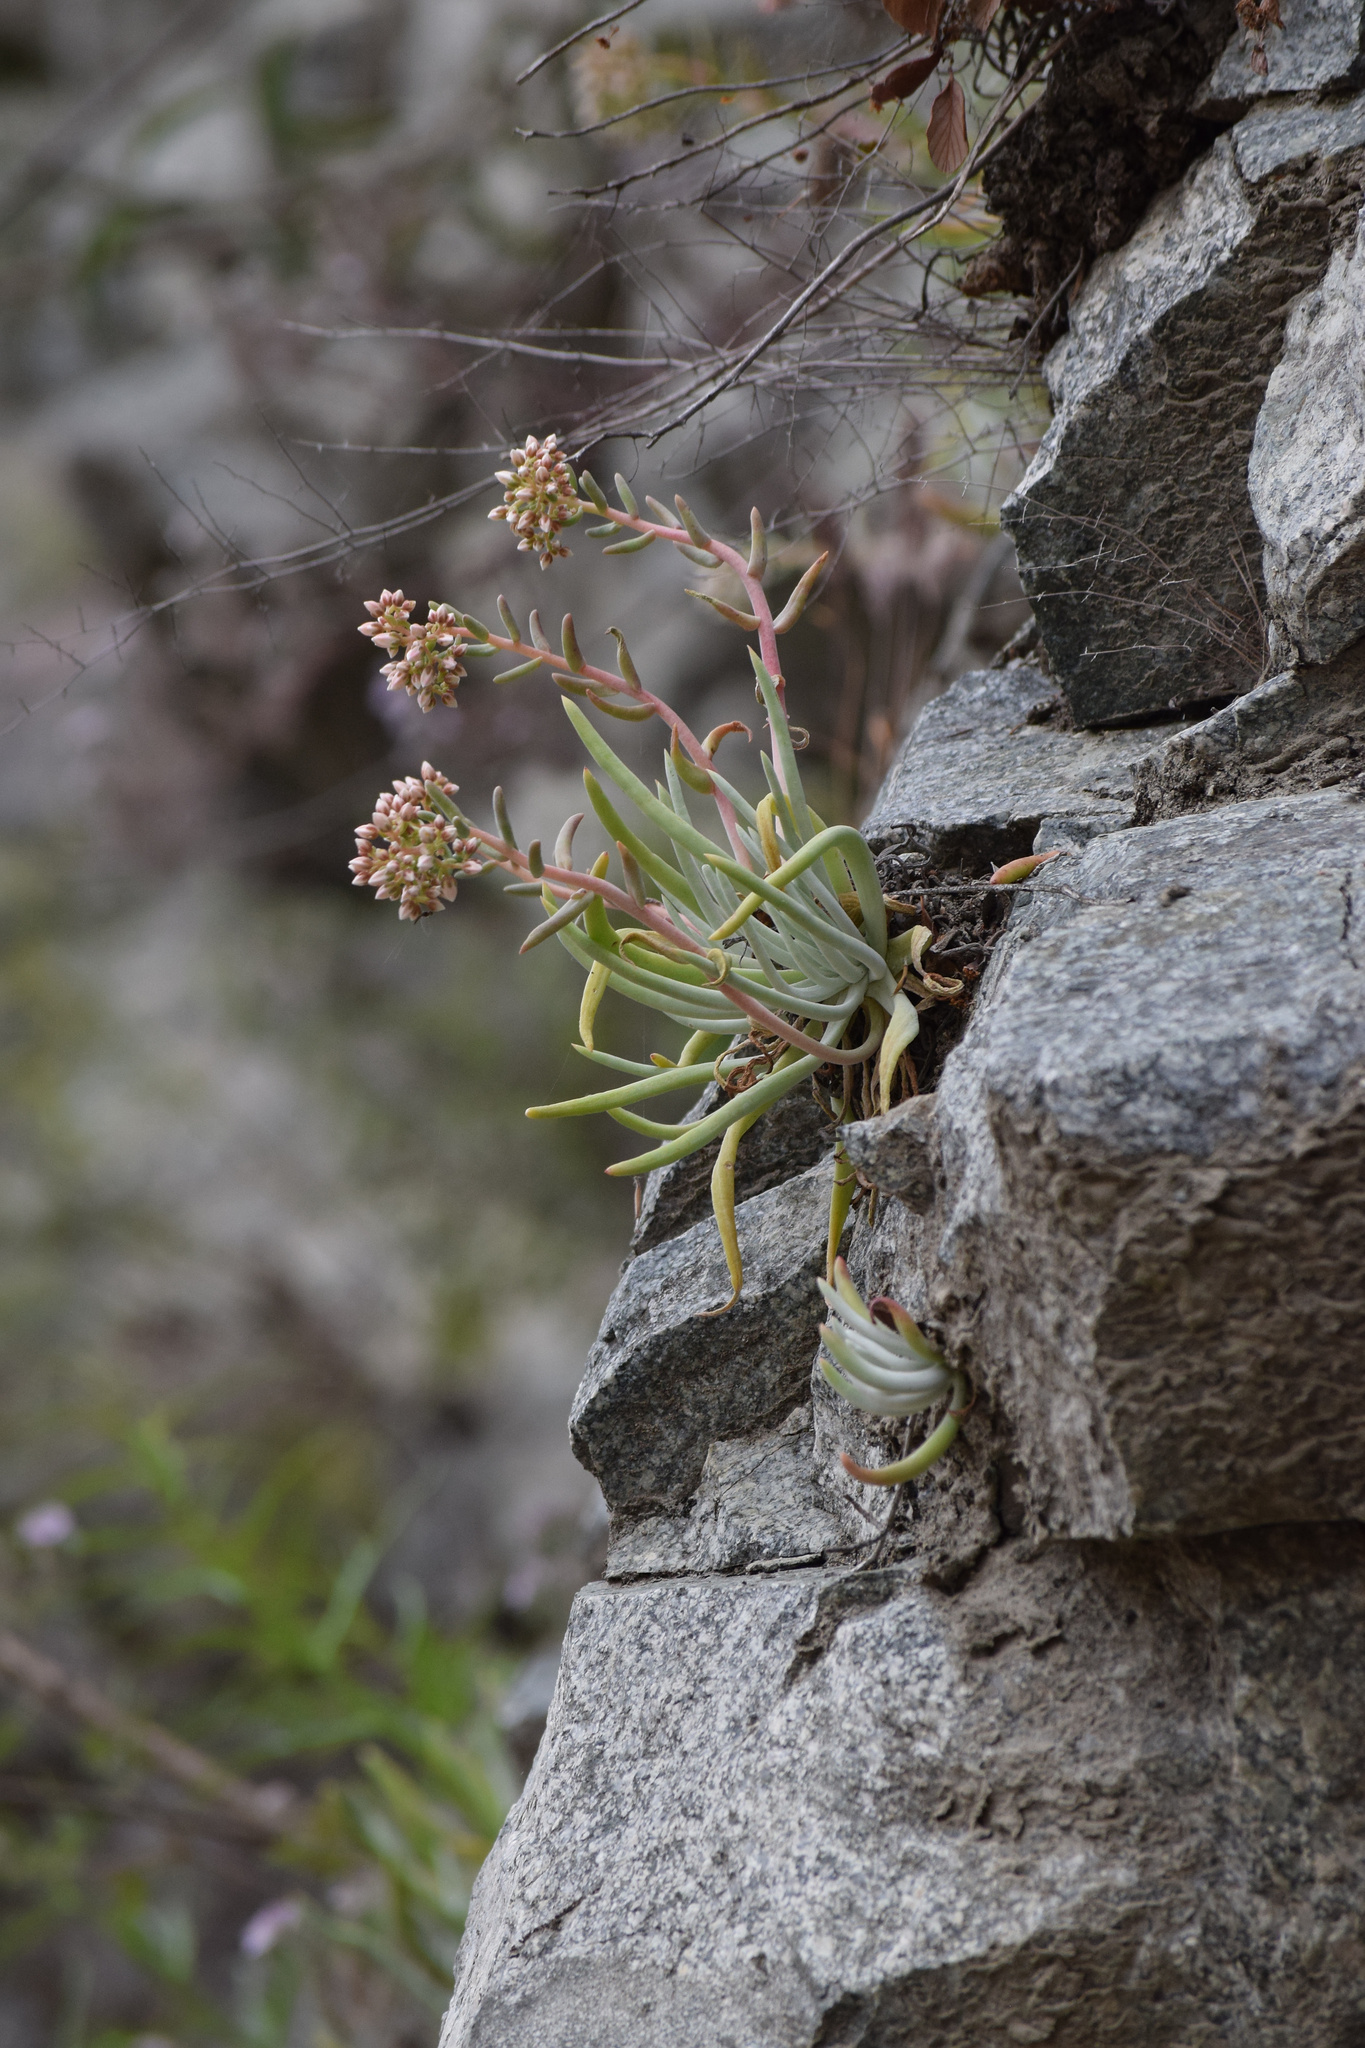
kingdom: Plantae
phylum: Tracheophyta
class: Magnoliopsida
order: Saxifragales
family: Crassulaceae
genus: Dudleya
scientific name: Dudleya densiflora
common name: San gabriel mountains dudleya
